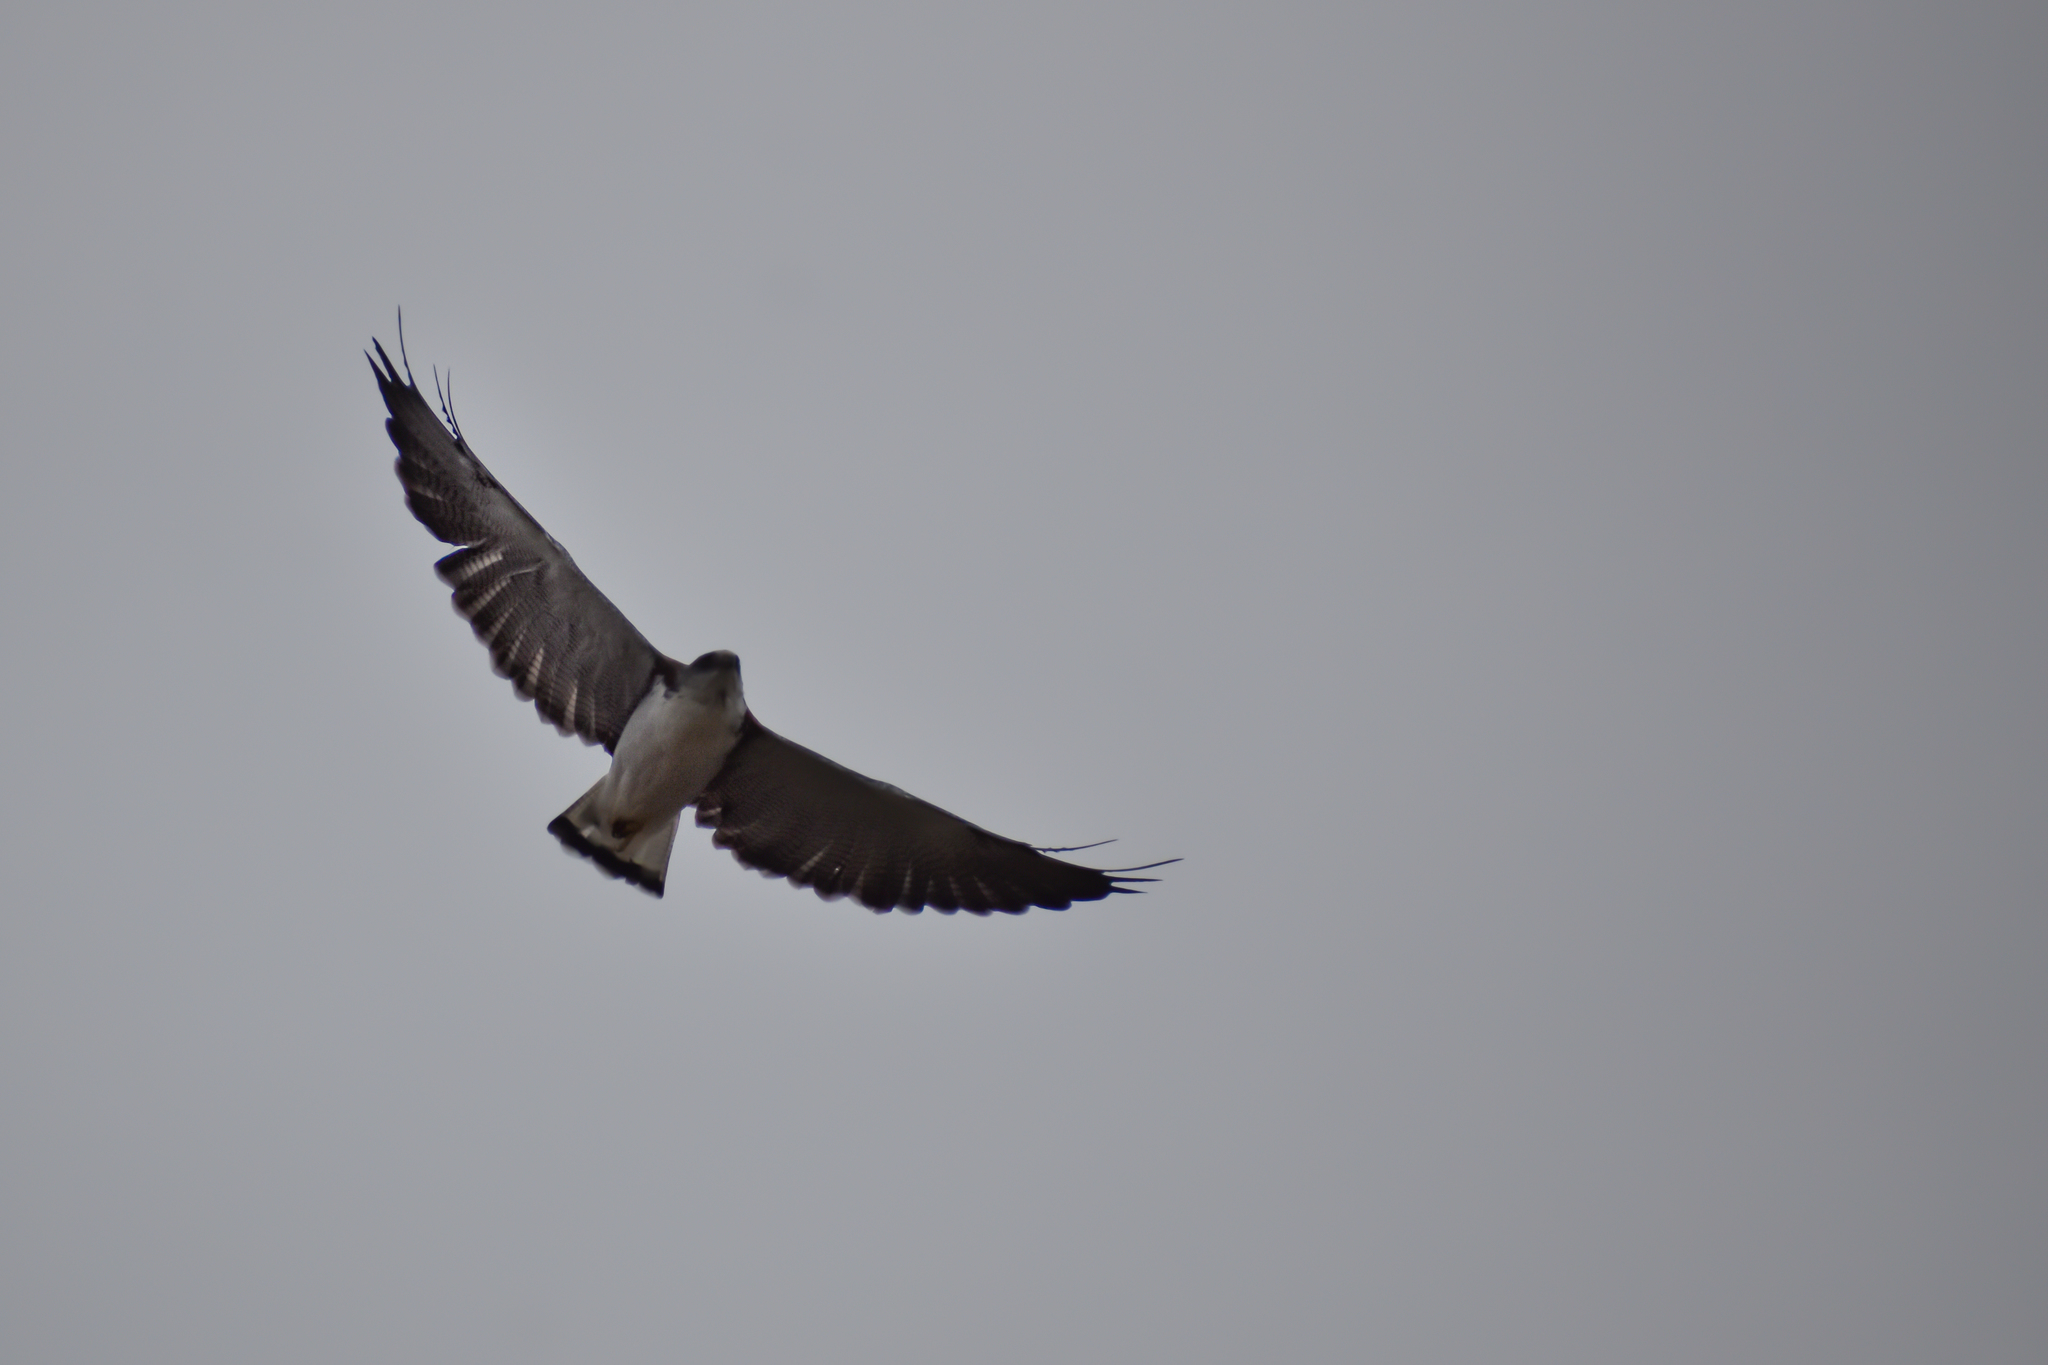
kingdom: Animalia
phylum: Chordata
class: Aves
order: Accipitriformes
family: Accipitridae
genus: Buteo
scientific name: Buteo polyosoma
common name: Variable hawk
